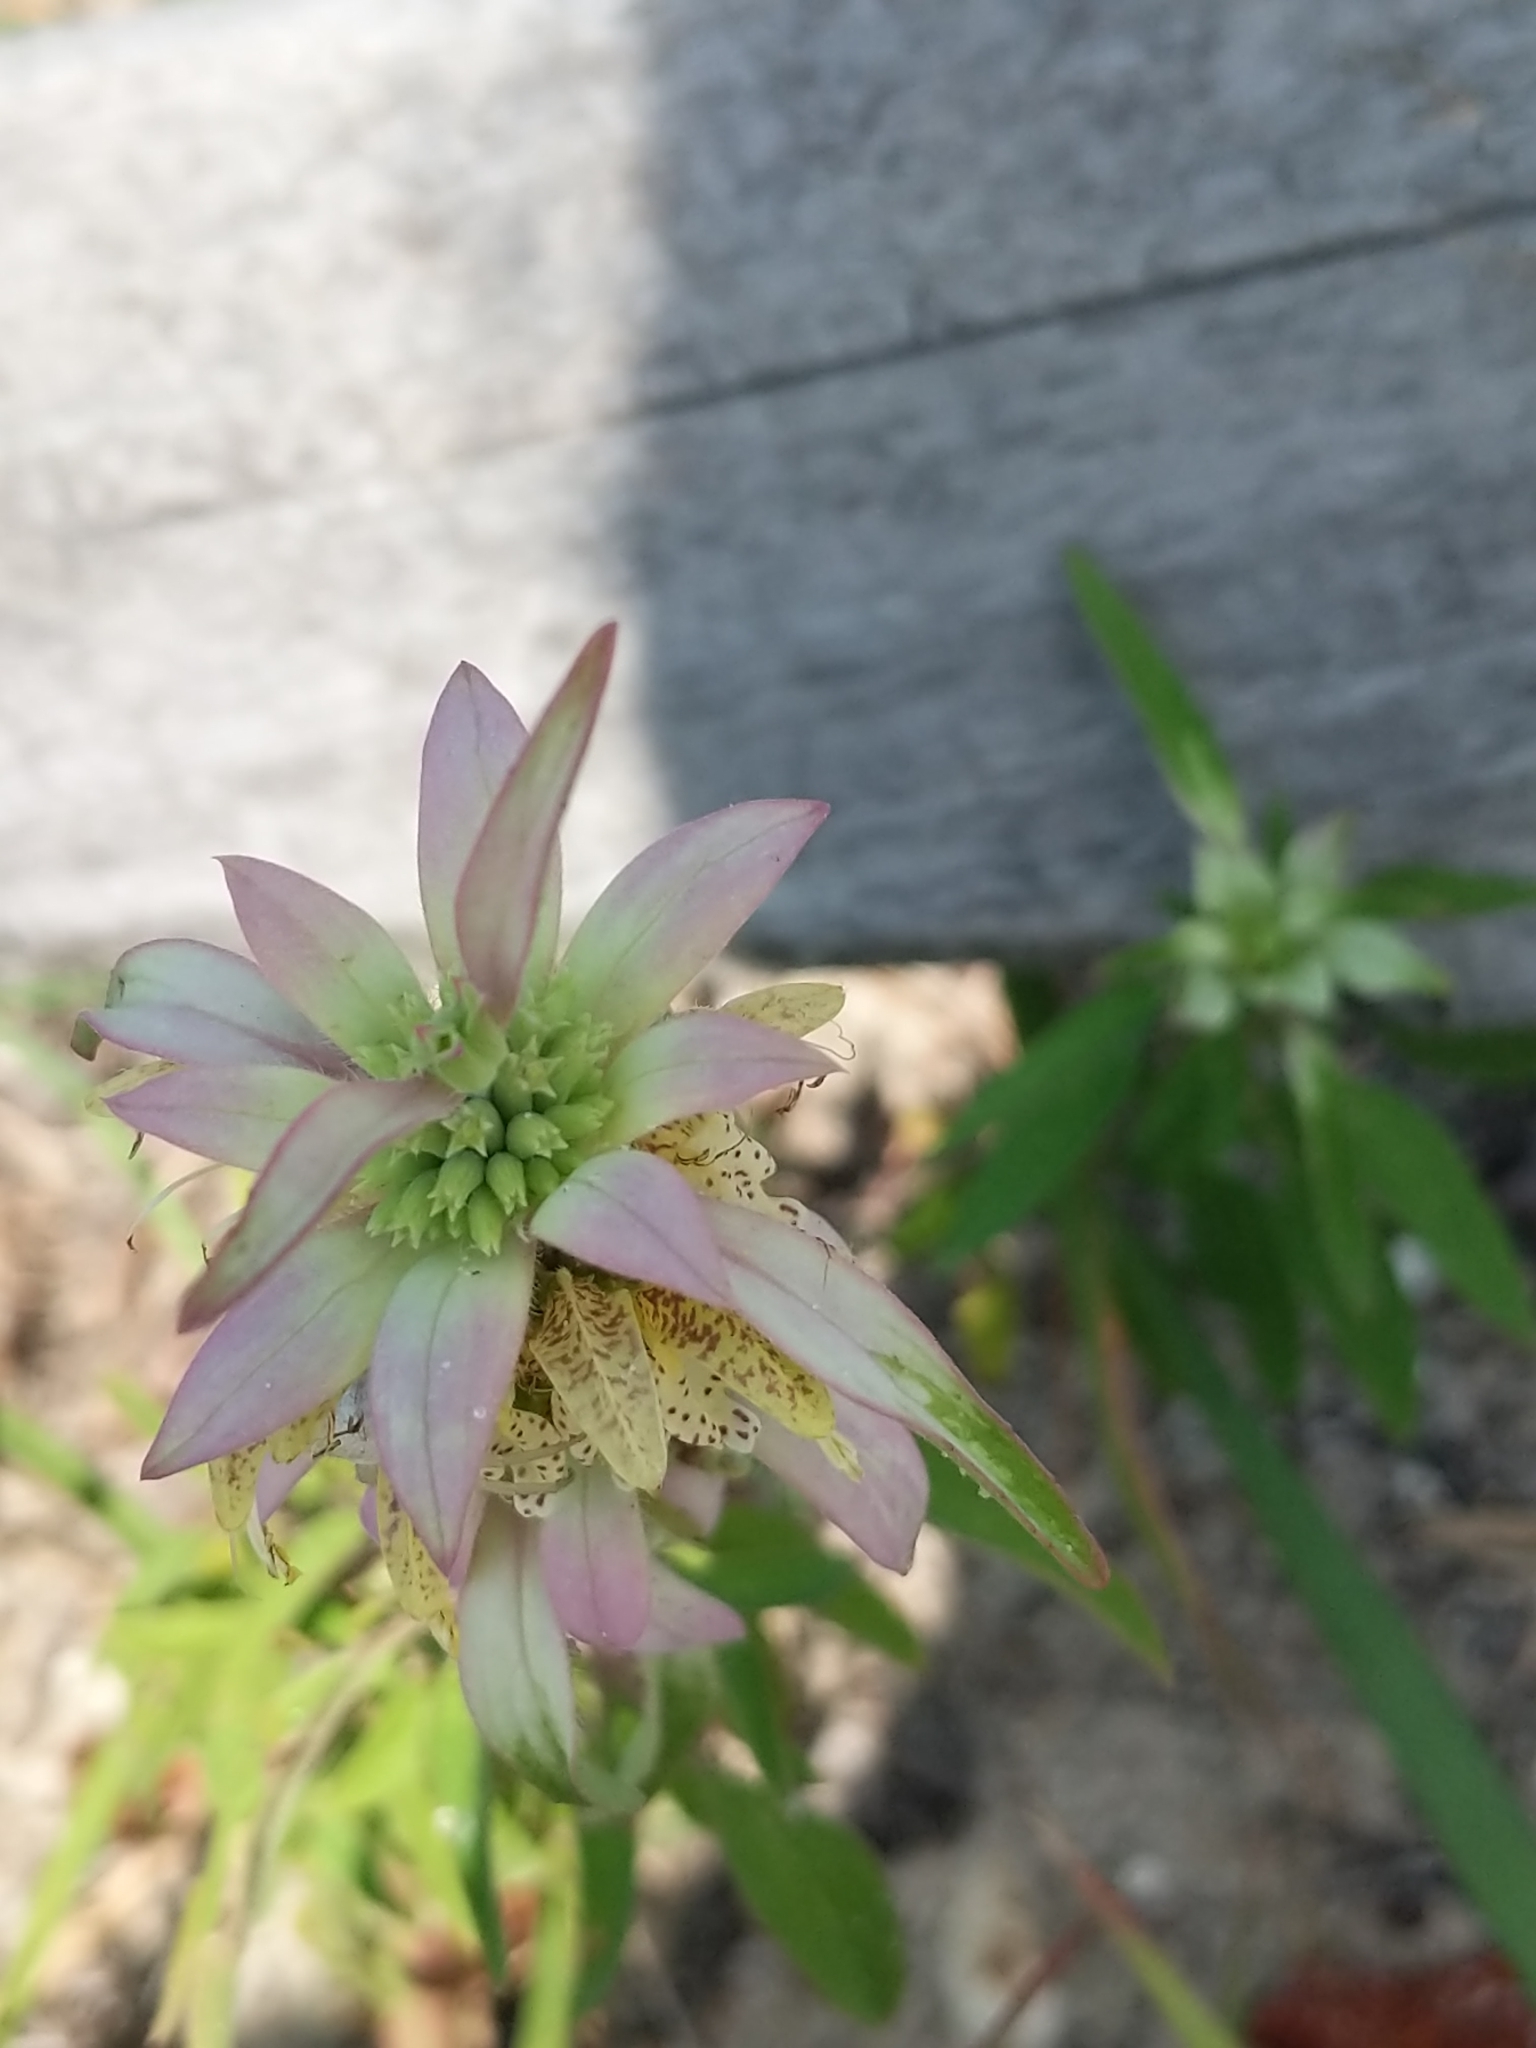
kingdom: Plantae
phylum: Tracheophyta
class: Magnoliopsida
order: Lamiales
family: Lamiaceae
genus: Monarda
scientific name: Monarda punctata
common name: Dotted monarda
